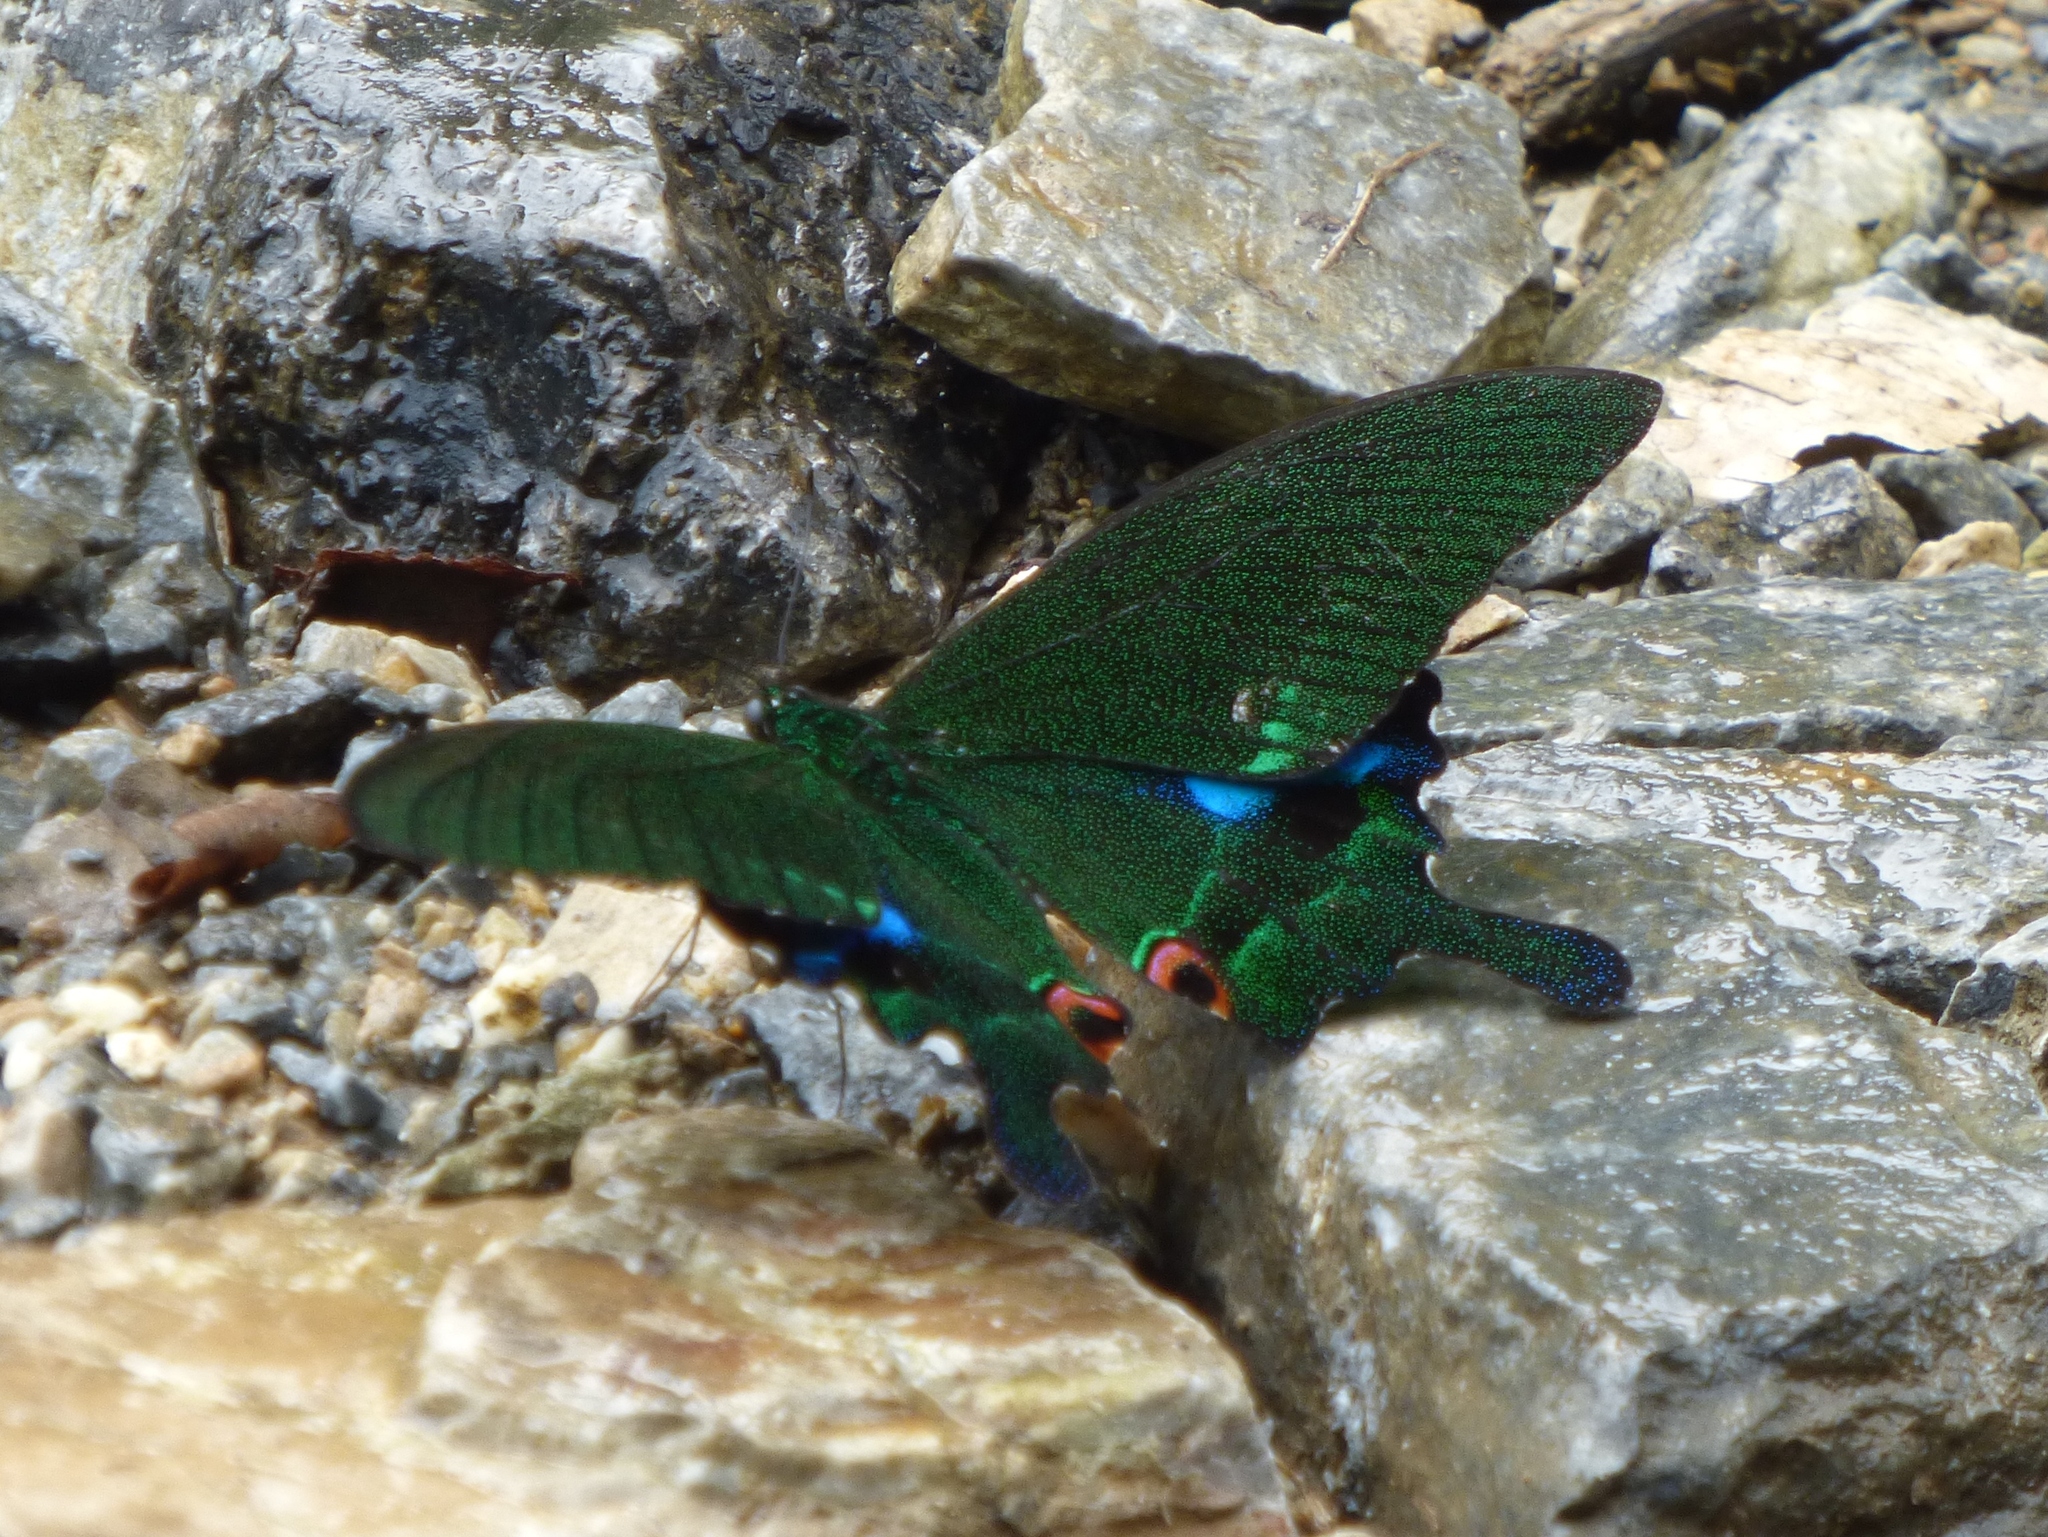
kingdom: Animalia
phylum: Arthropoda
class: Insecta
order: Lepidoptera
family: Papilionidae
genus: Papilio
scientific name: Papilio paris
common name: Paris peacock
